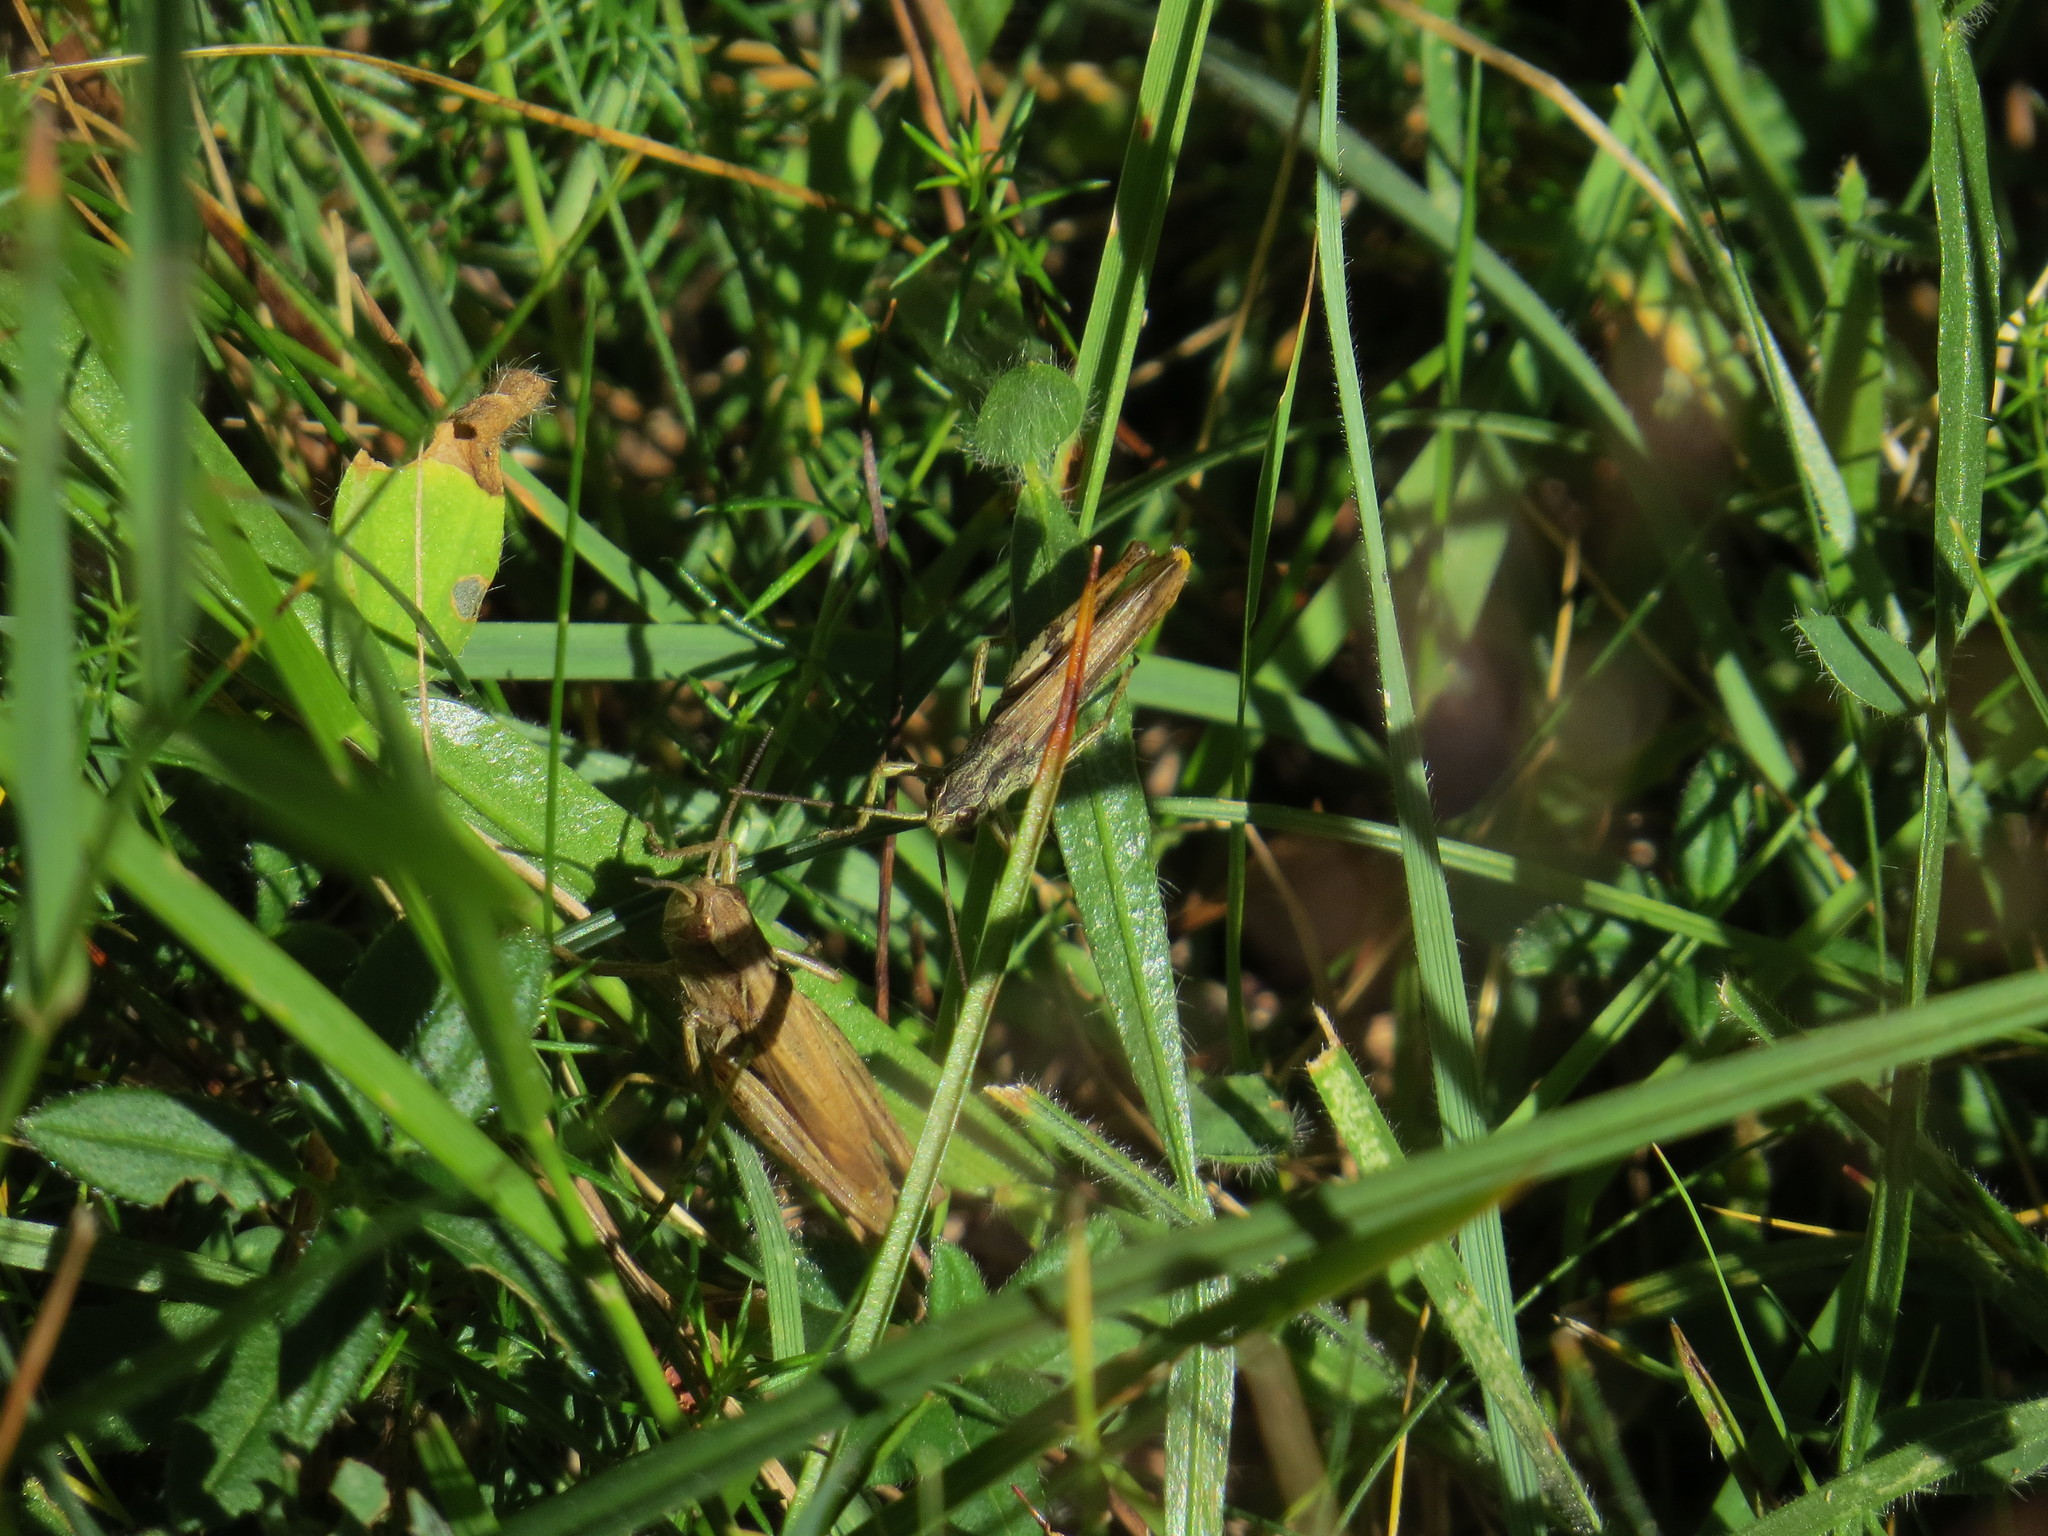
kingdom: Animalia
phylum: Arthropoda
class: Insecta
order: Orthoptera
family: Acrididae
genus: Chorthippus
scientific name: Chorthippus apricarius
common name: Upland field grasshopper
